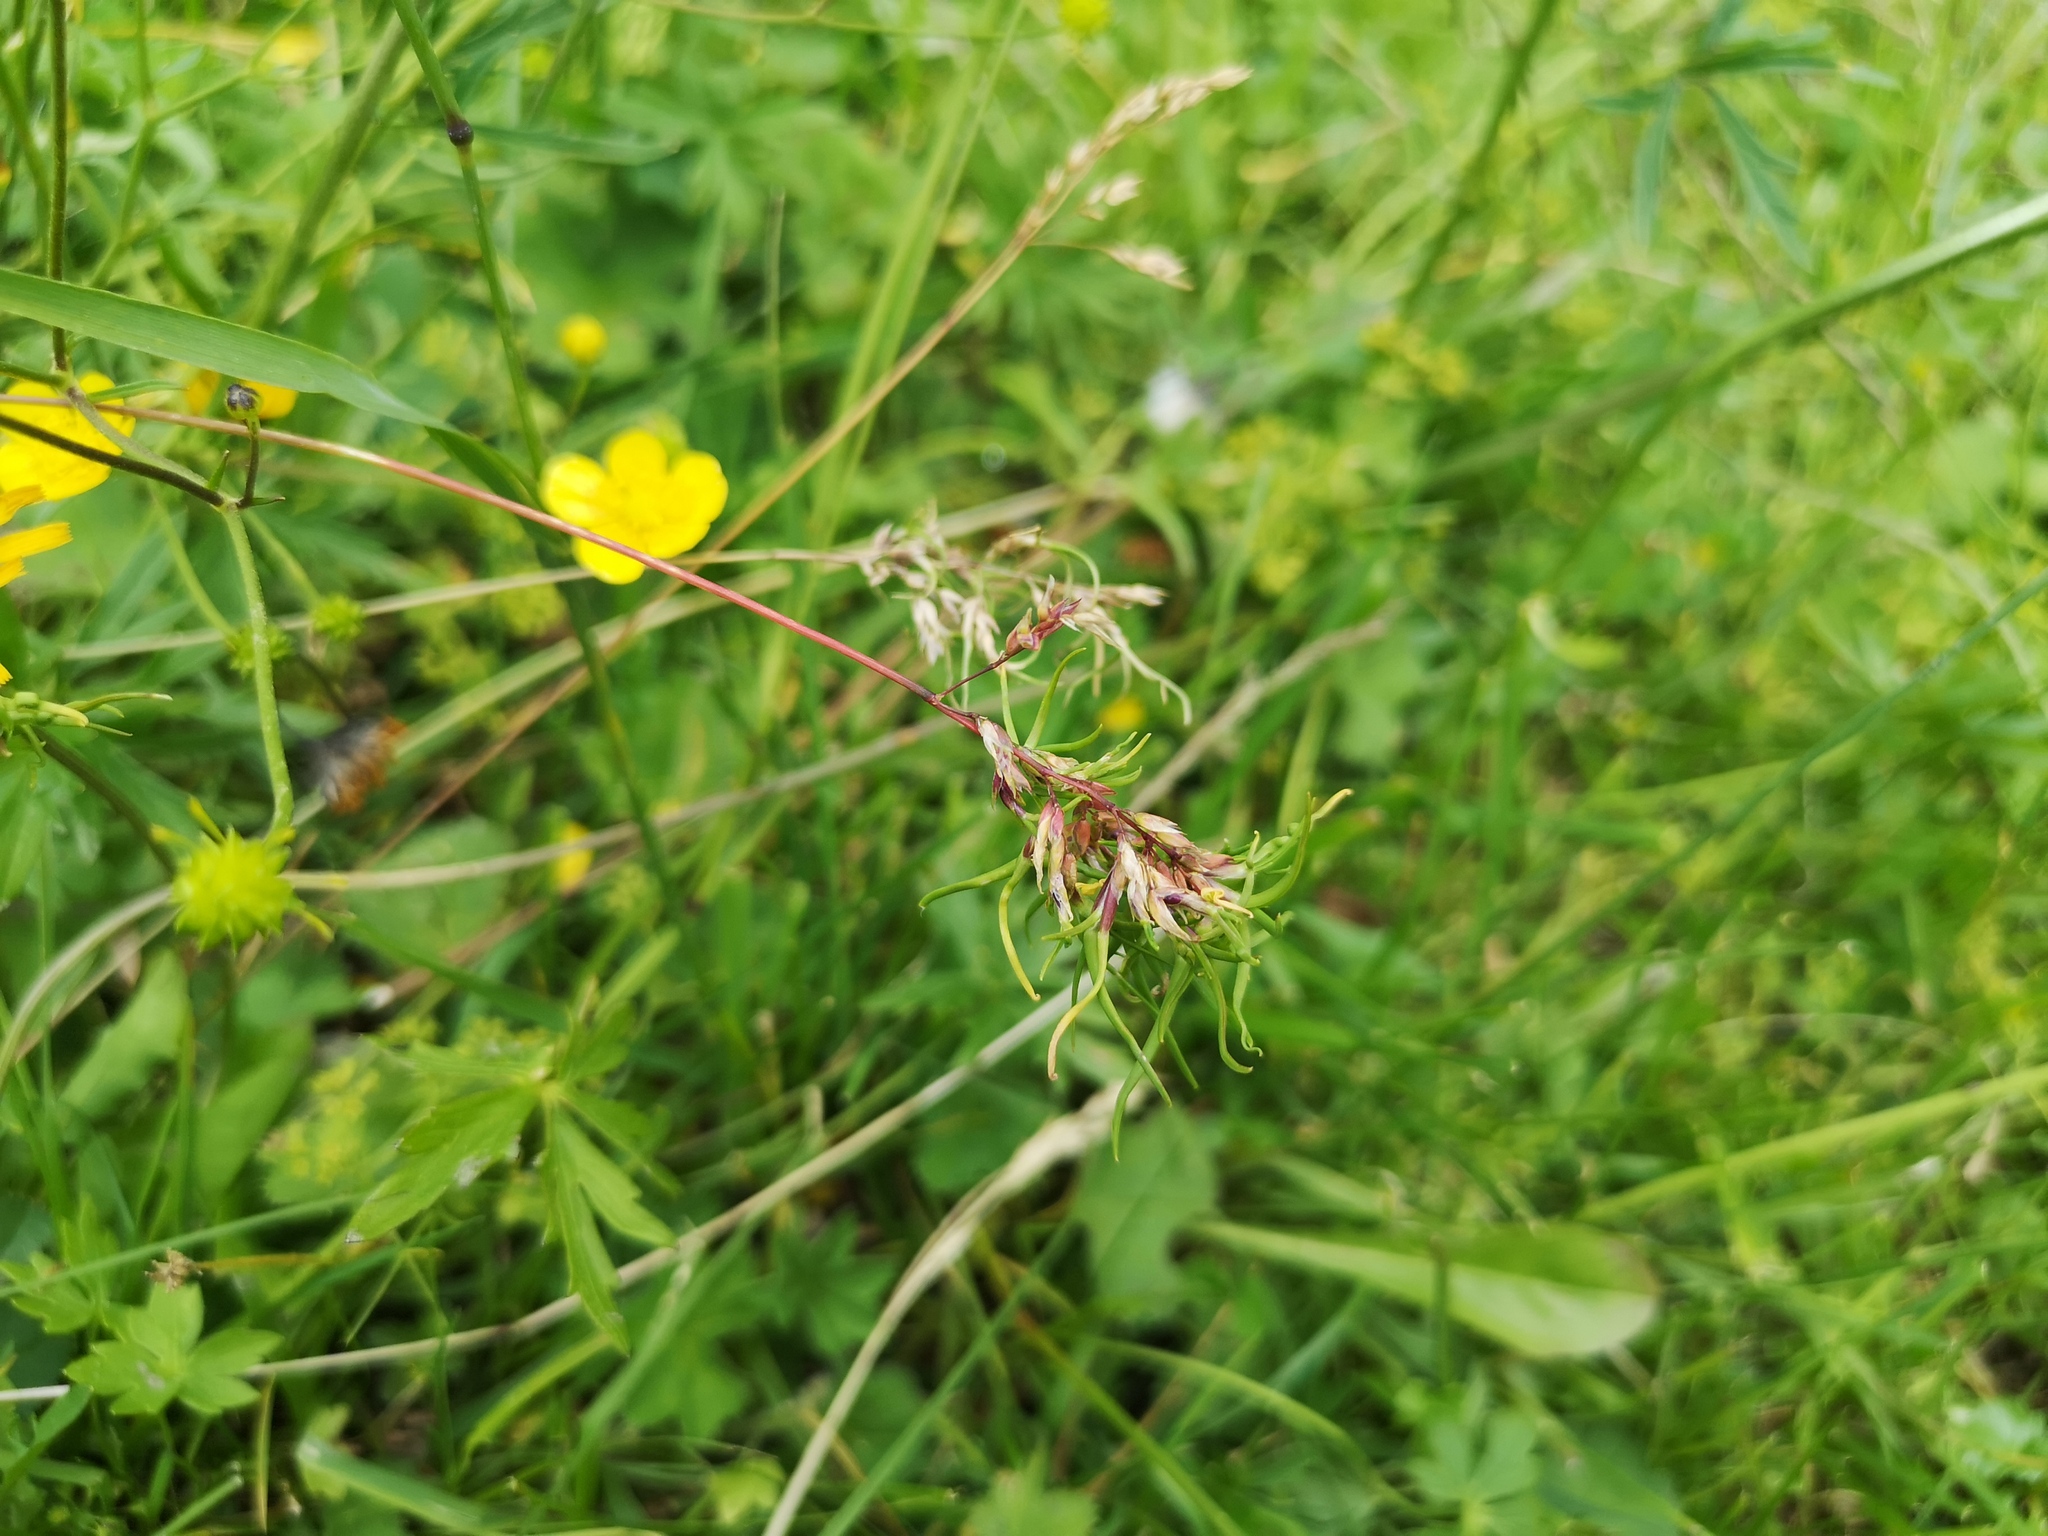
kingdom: Plantae
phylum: Tracheophyta
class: Liliopsida
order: Poales
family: Poaceae
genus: Poa
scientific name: Poa alpina
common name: Alpine bluegrass
